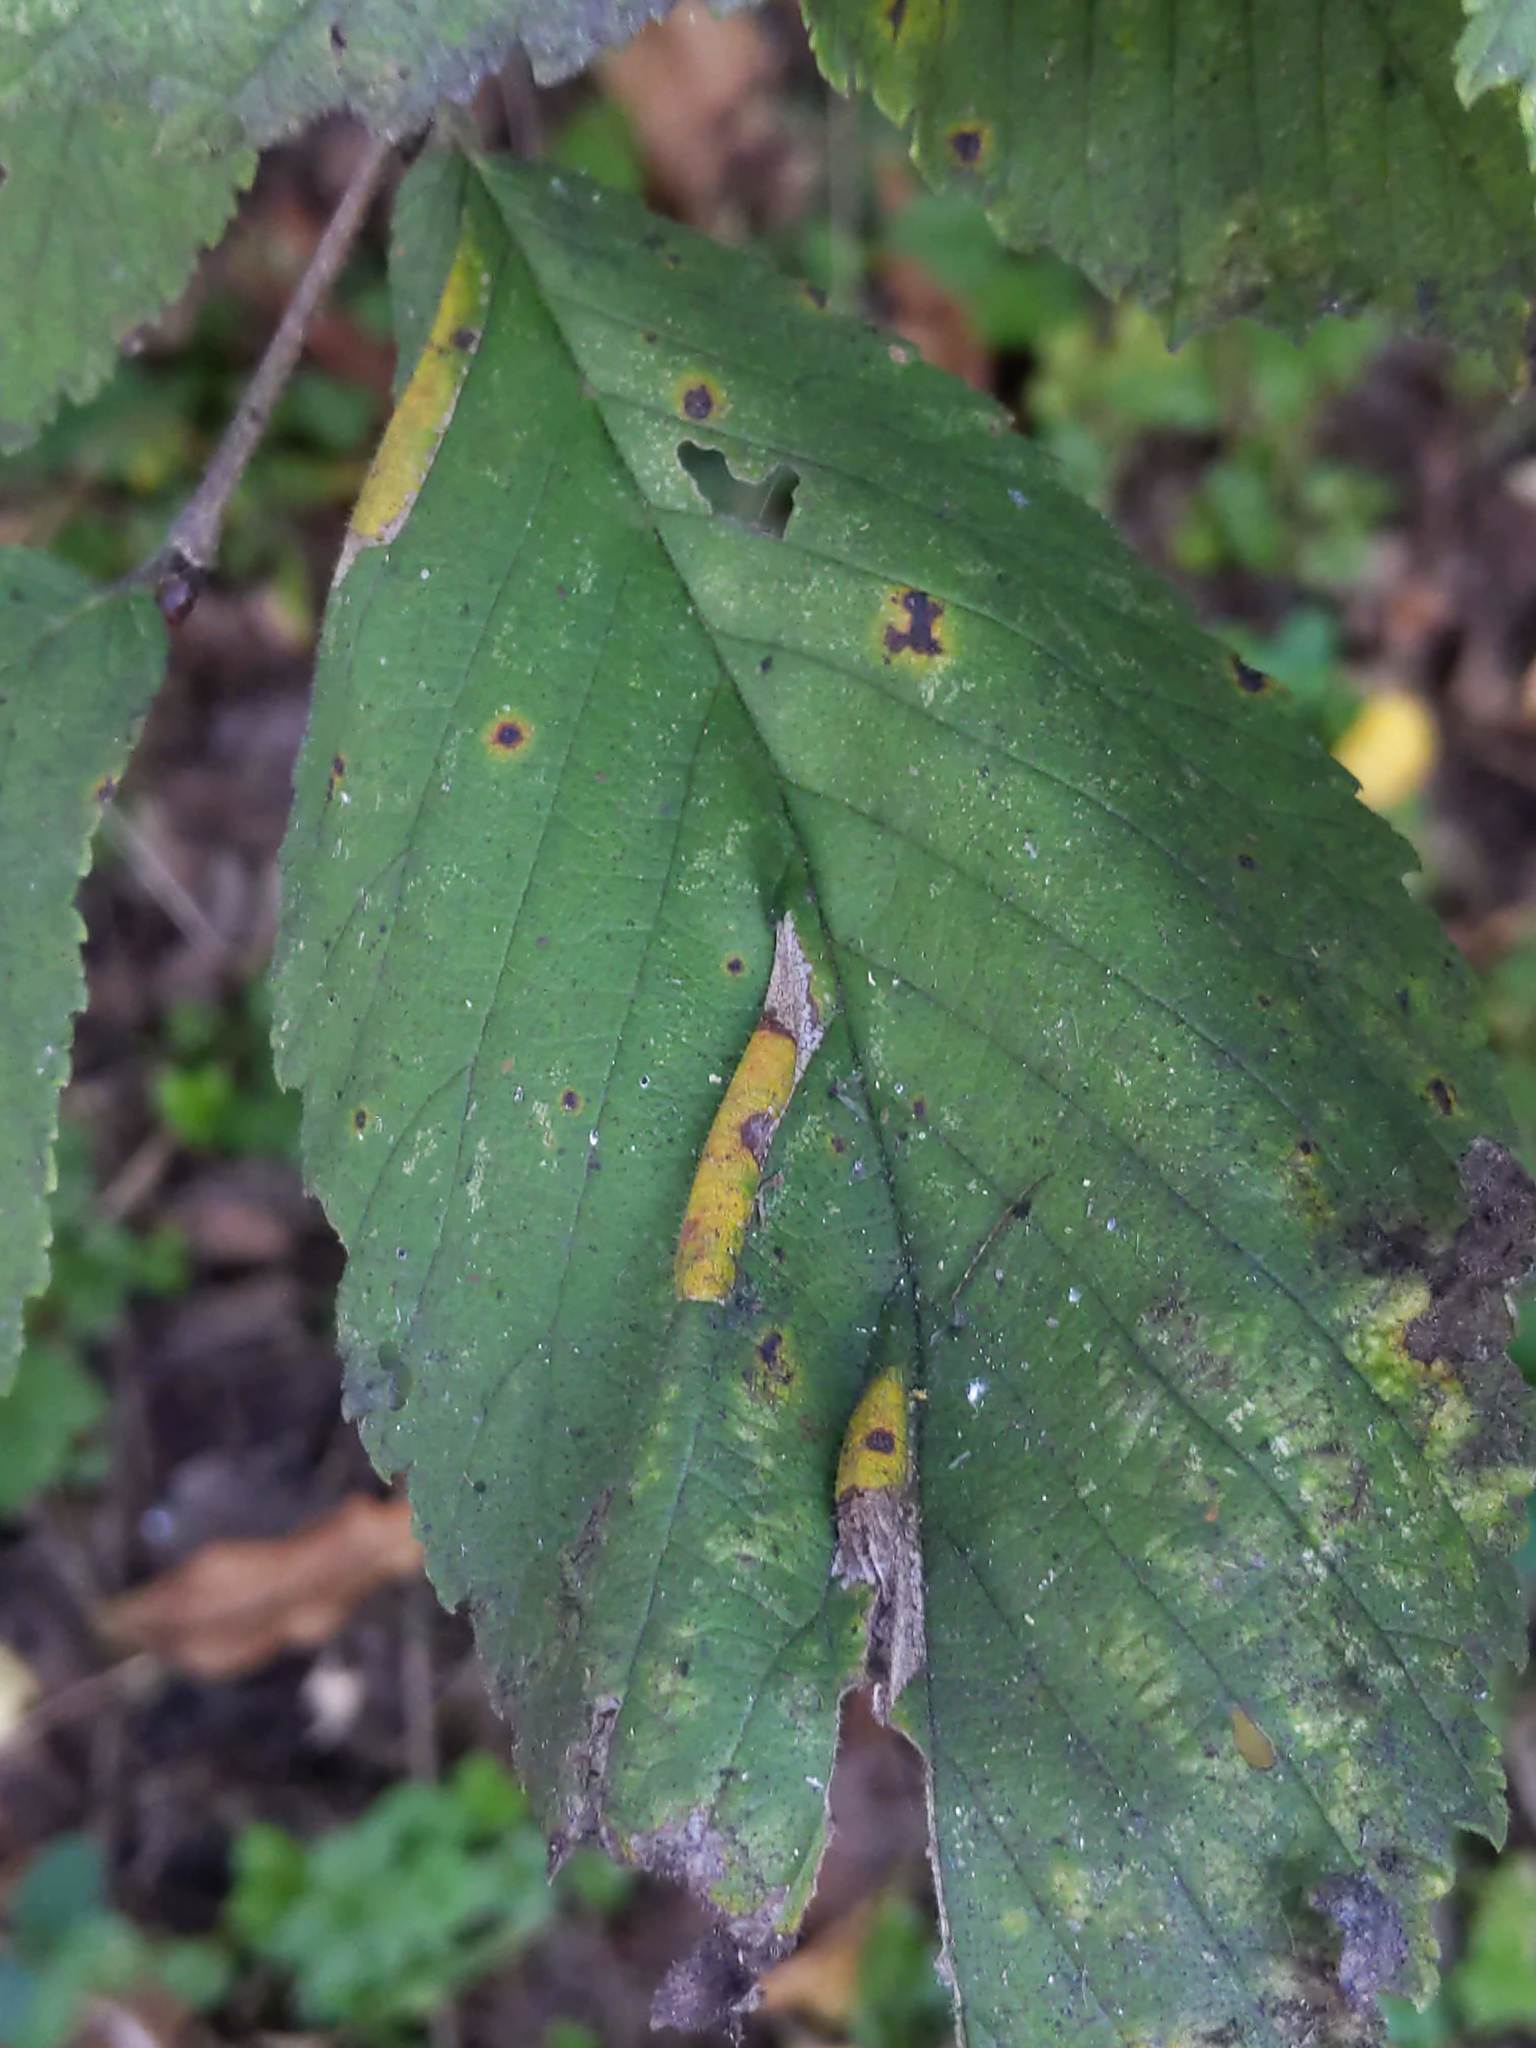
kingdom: Animalia
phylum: Arthropoda
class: Insecta
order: Lepidoptera
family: Gracillariidae
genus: Phyllonorycter
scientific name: Phyllonorycter argentinotella
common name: Golden elm leafminer
